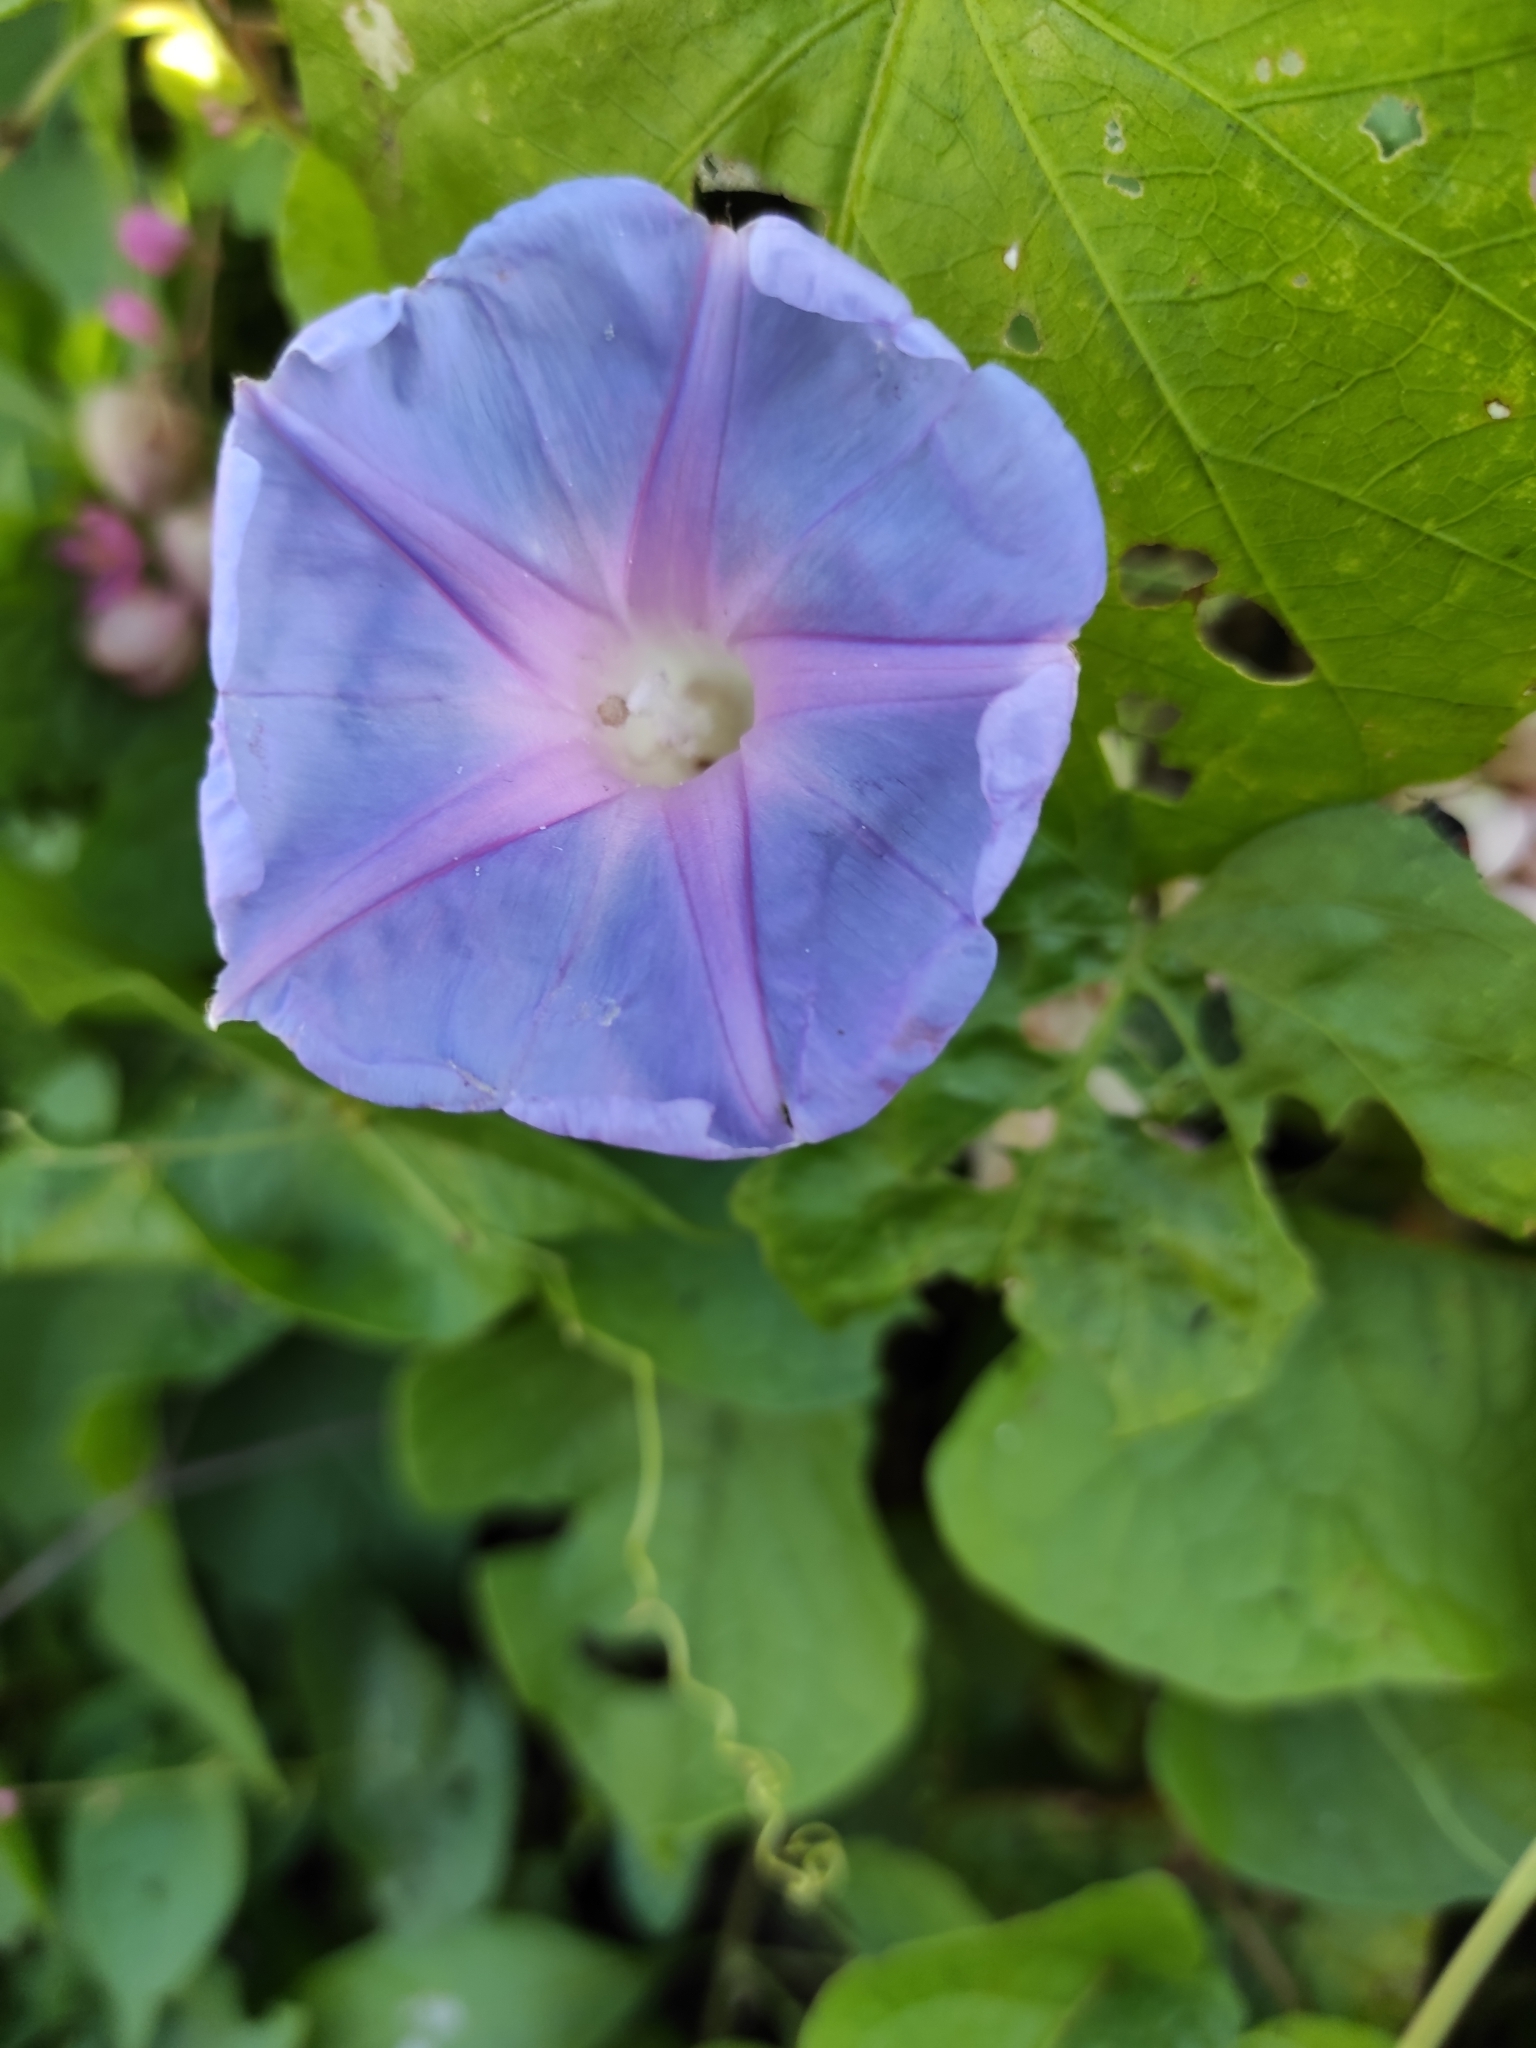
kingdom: Plantae
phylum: Tracheophyta
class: Magnoliopsida
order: Solanales
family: Convolvulaceae
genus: Ipomoea
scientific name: Ipomoea indica
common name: Blue dawnflower
